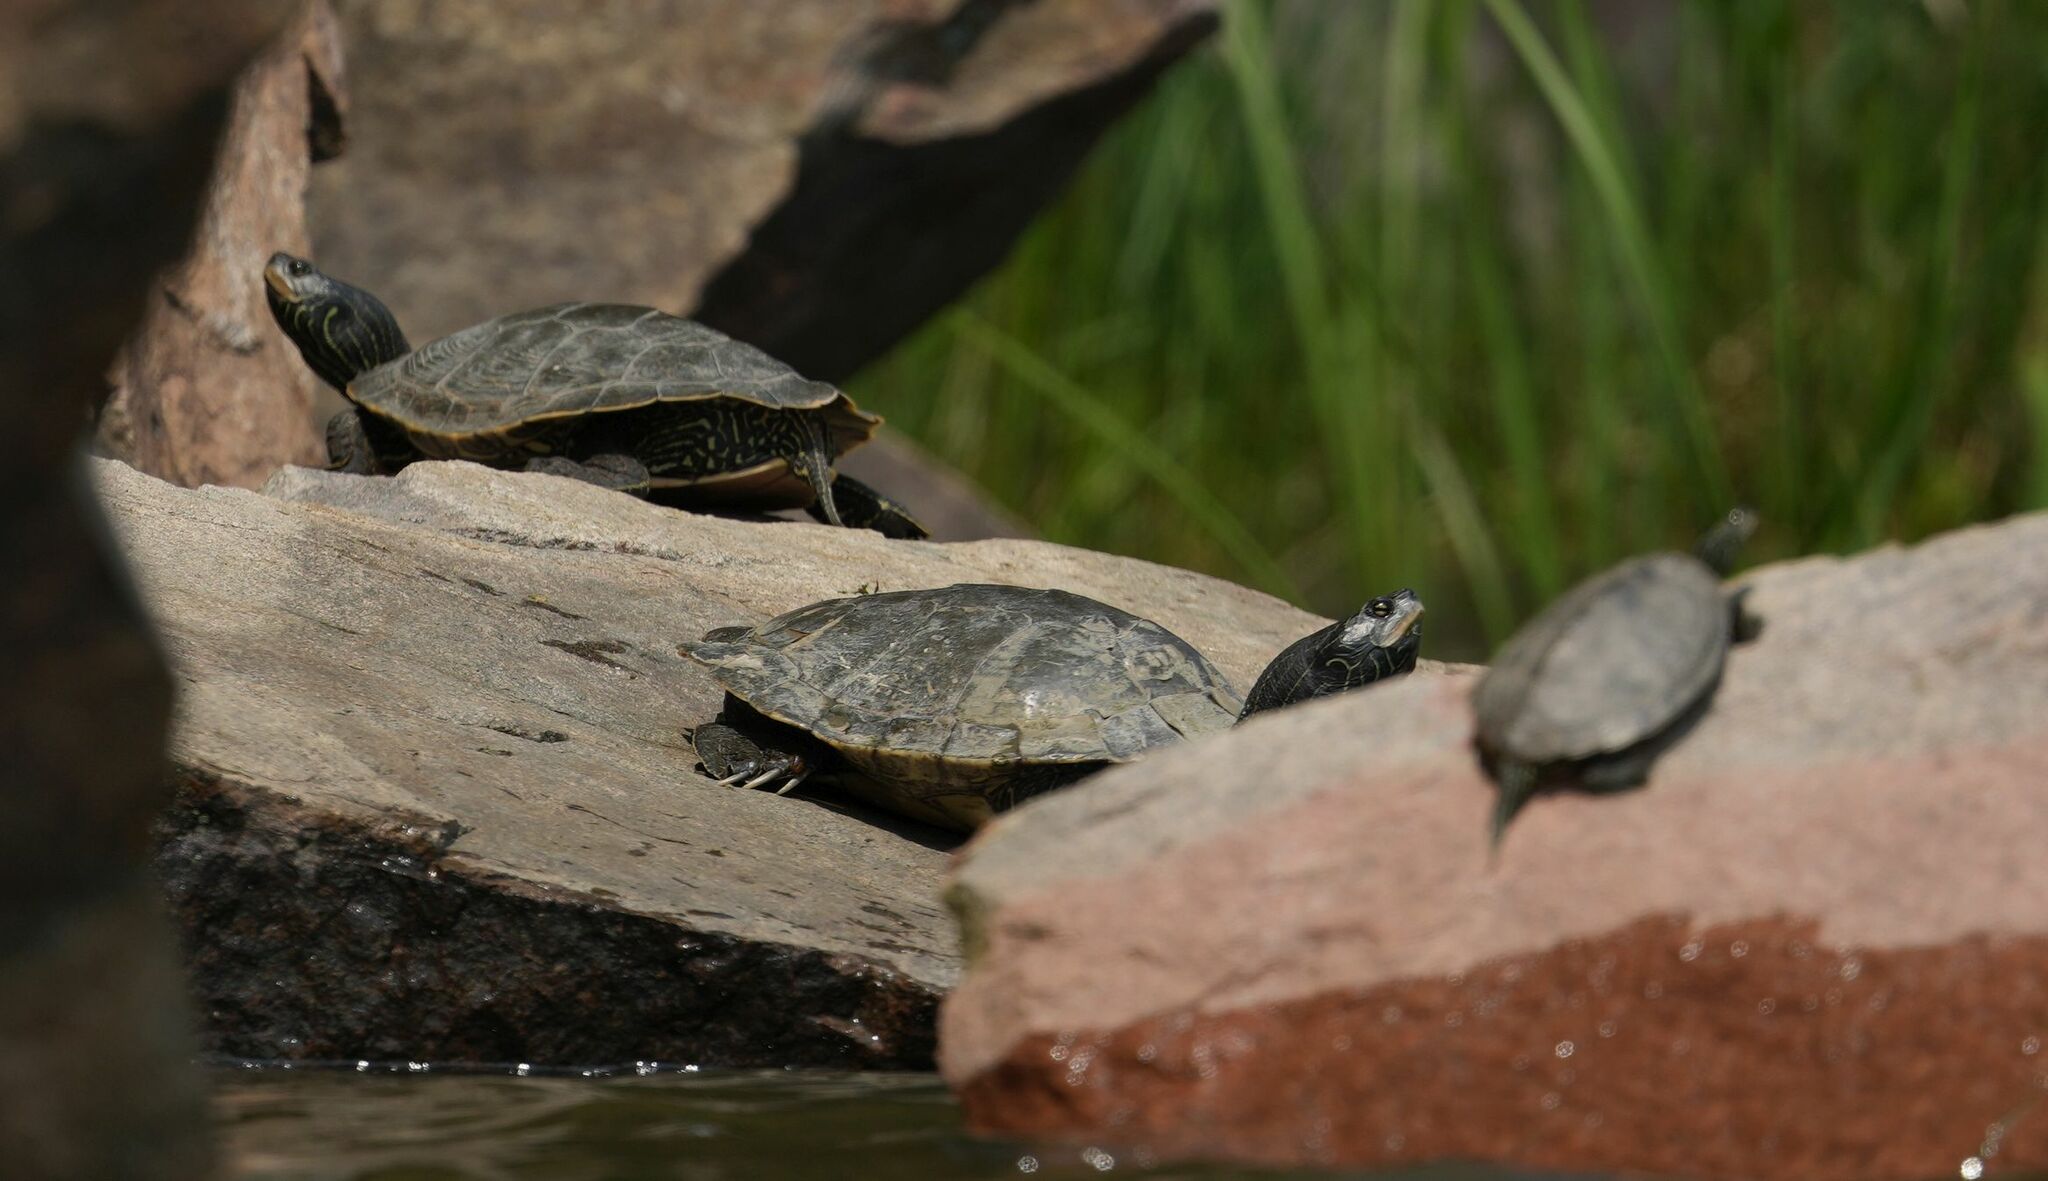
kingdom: Animalia
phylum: Chordata
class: Testudines
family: Emydidae
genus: Graptemys
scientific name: Graptemys geographica
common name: Common map turtle
